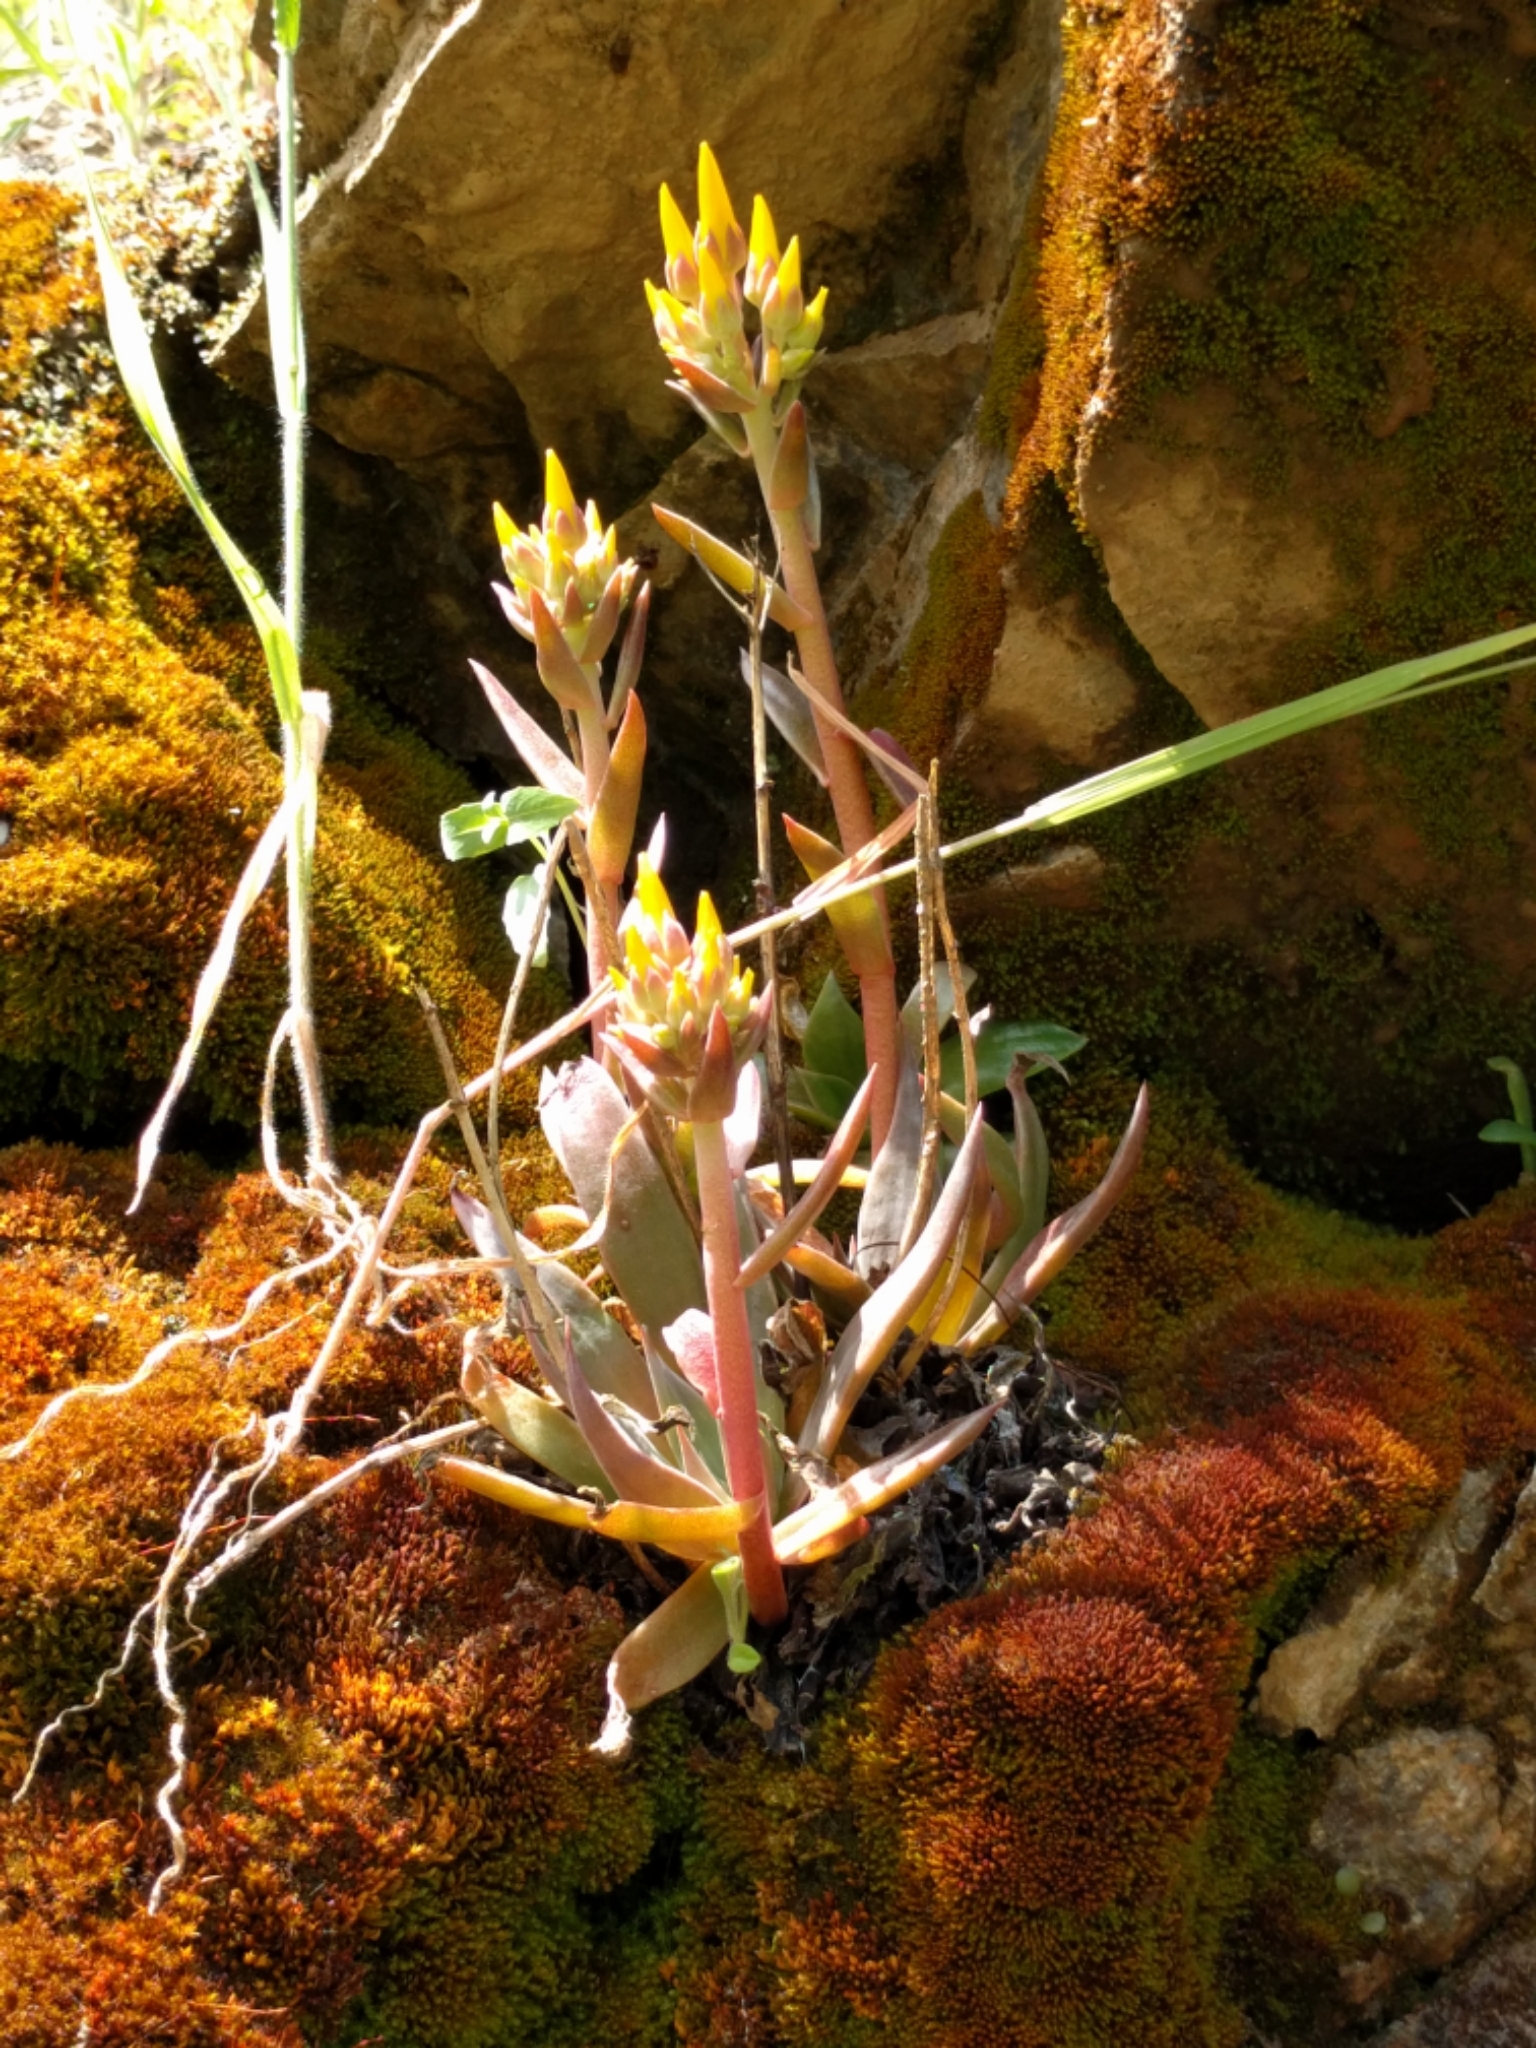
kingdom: Plantae
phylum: Tracheophyta
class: Magnoliopsida
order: Saxifragales
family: Crassulaceae
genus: Dudleya
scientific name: Dudleya cymosa
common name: Canyon dudleya
